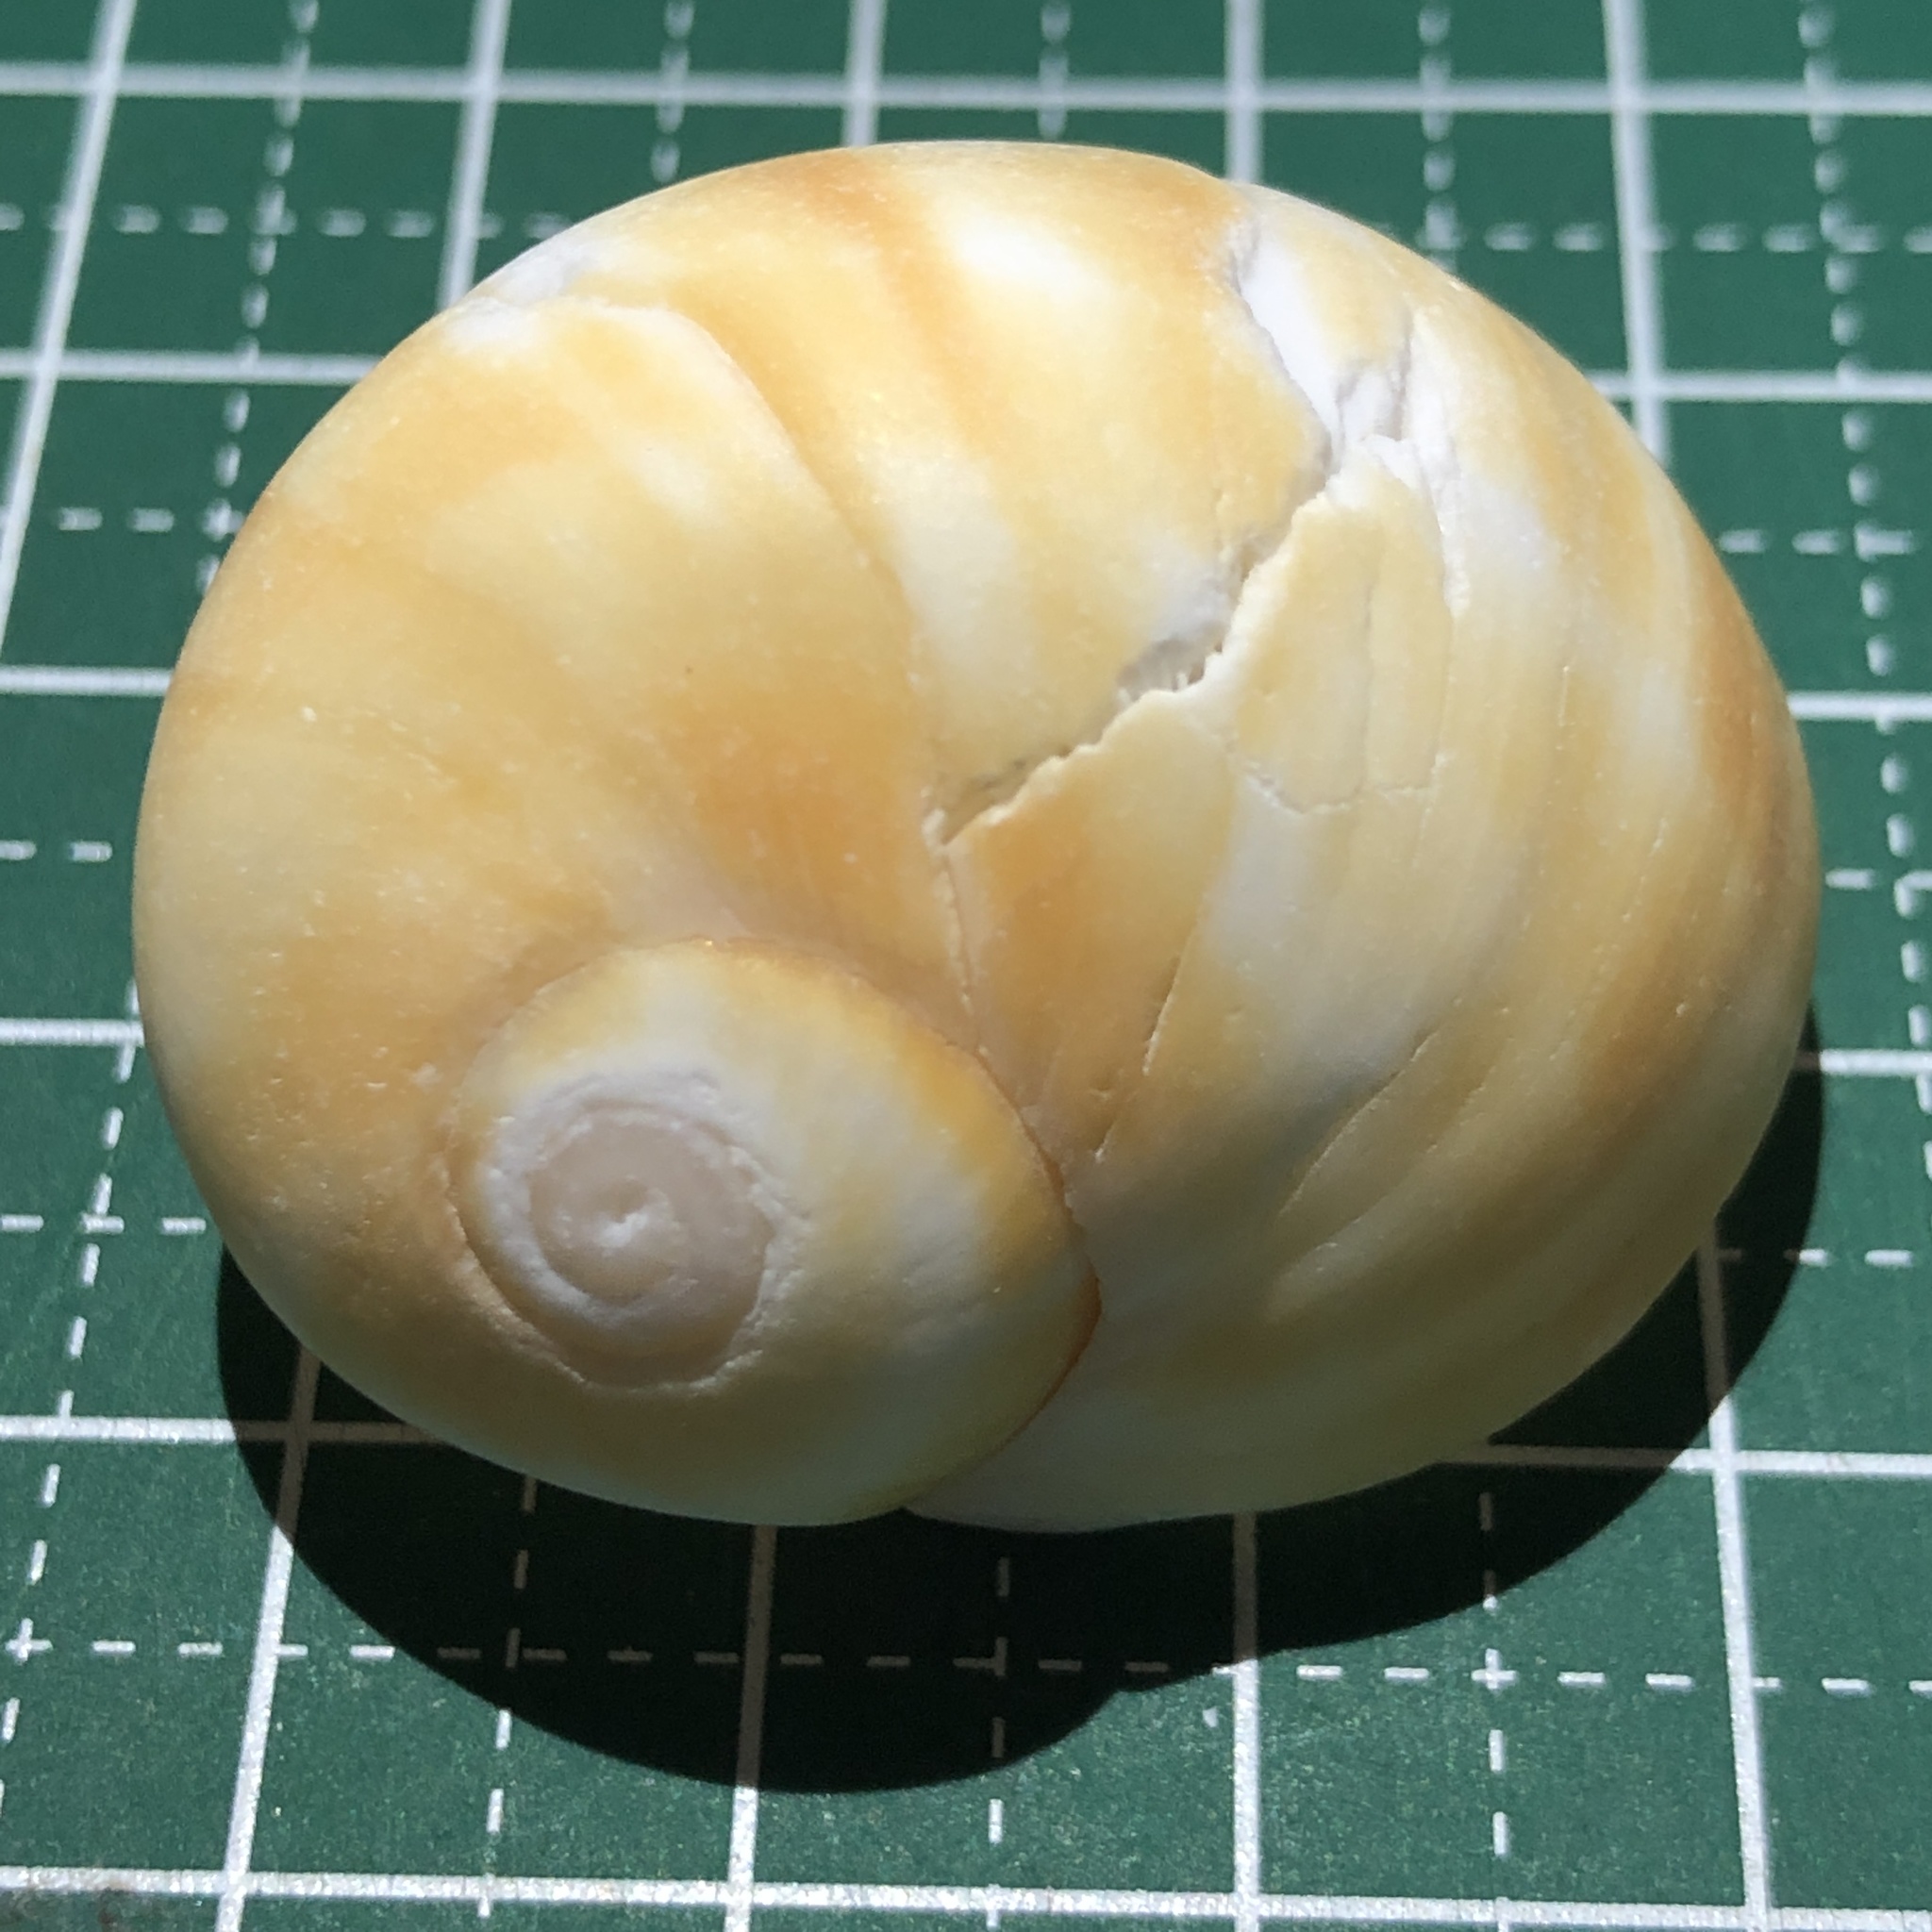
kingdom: Animalia
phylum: Mollusca
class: Gastropoda
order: Littorinimorpha
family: Naticidae
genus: Natica
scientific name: Natica stellata
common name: Starry moonsnail
